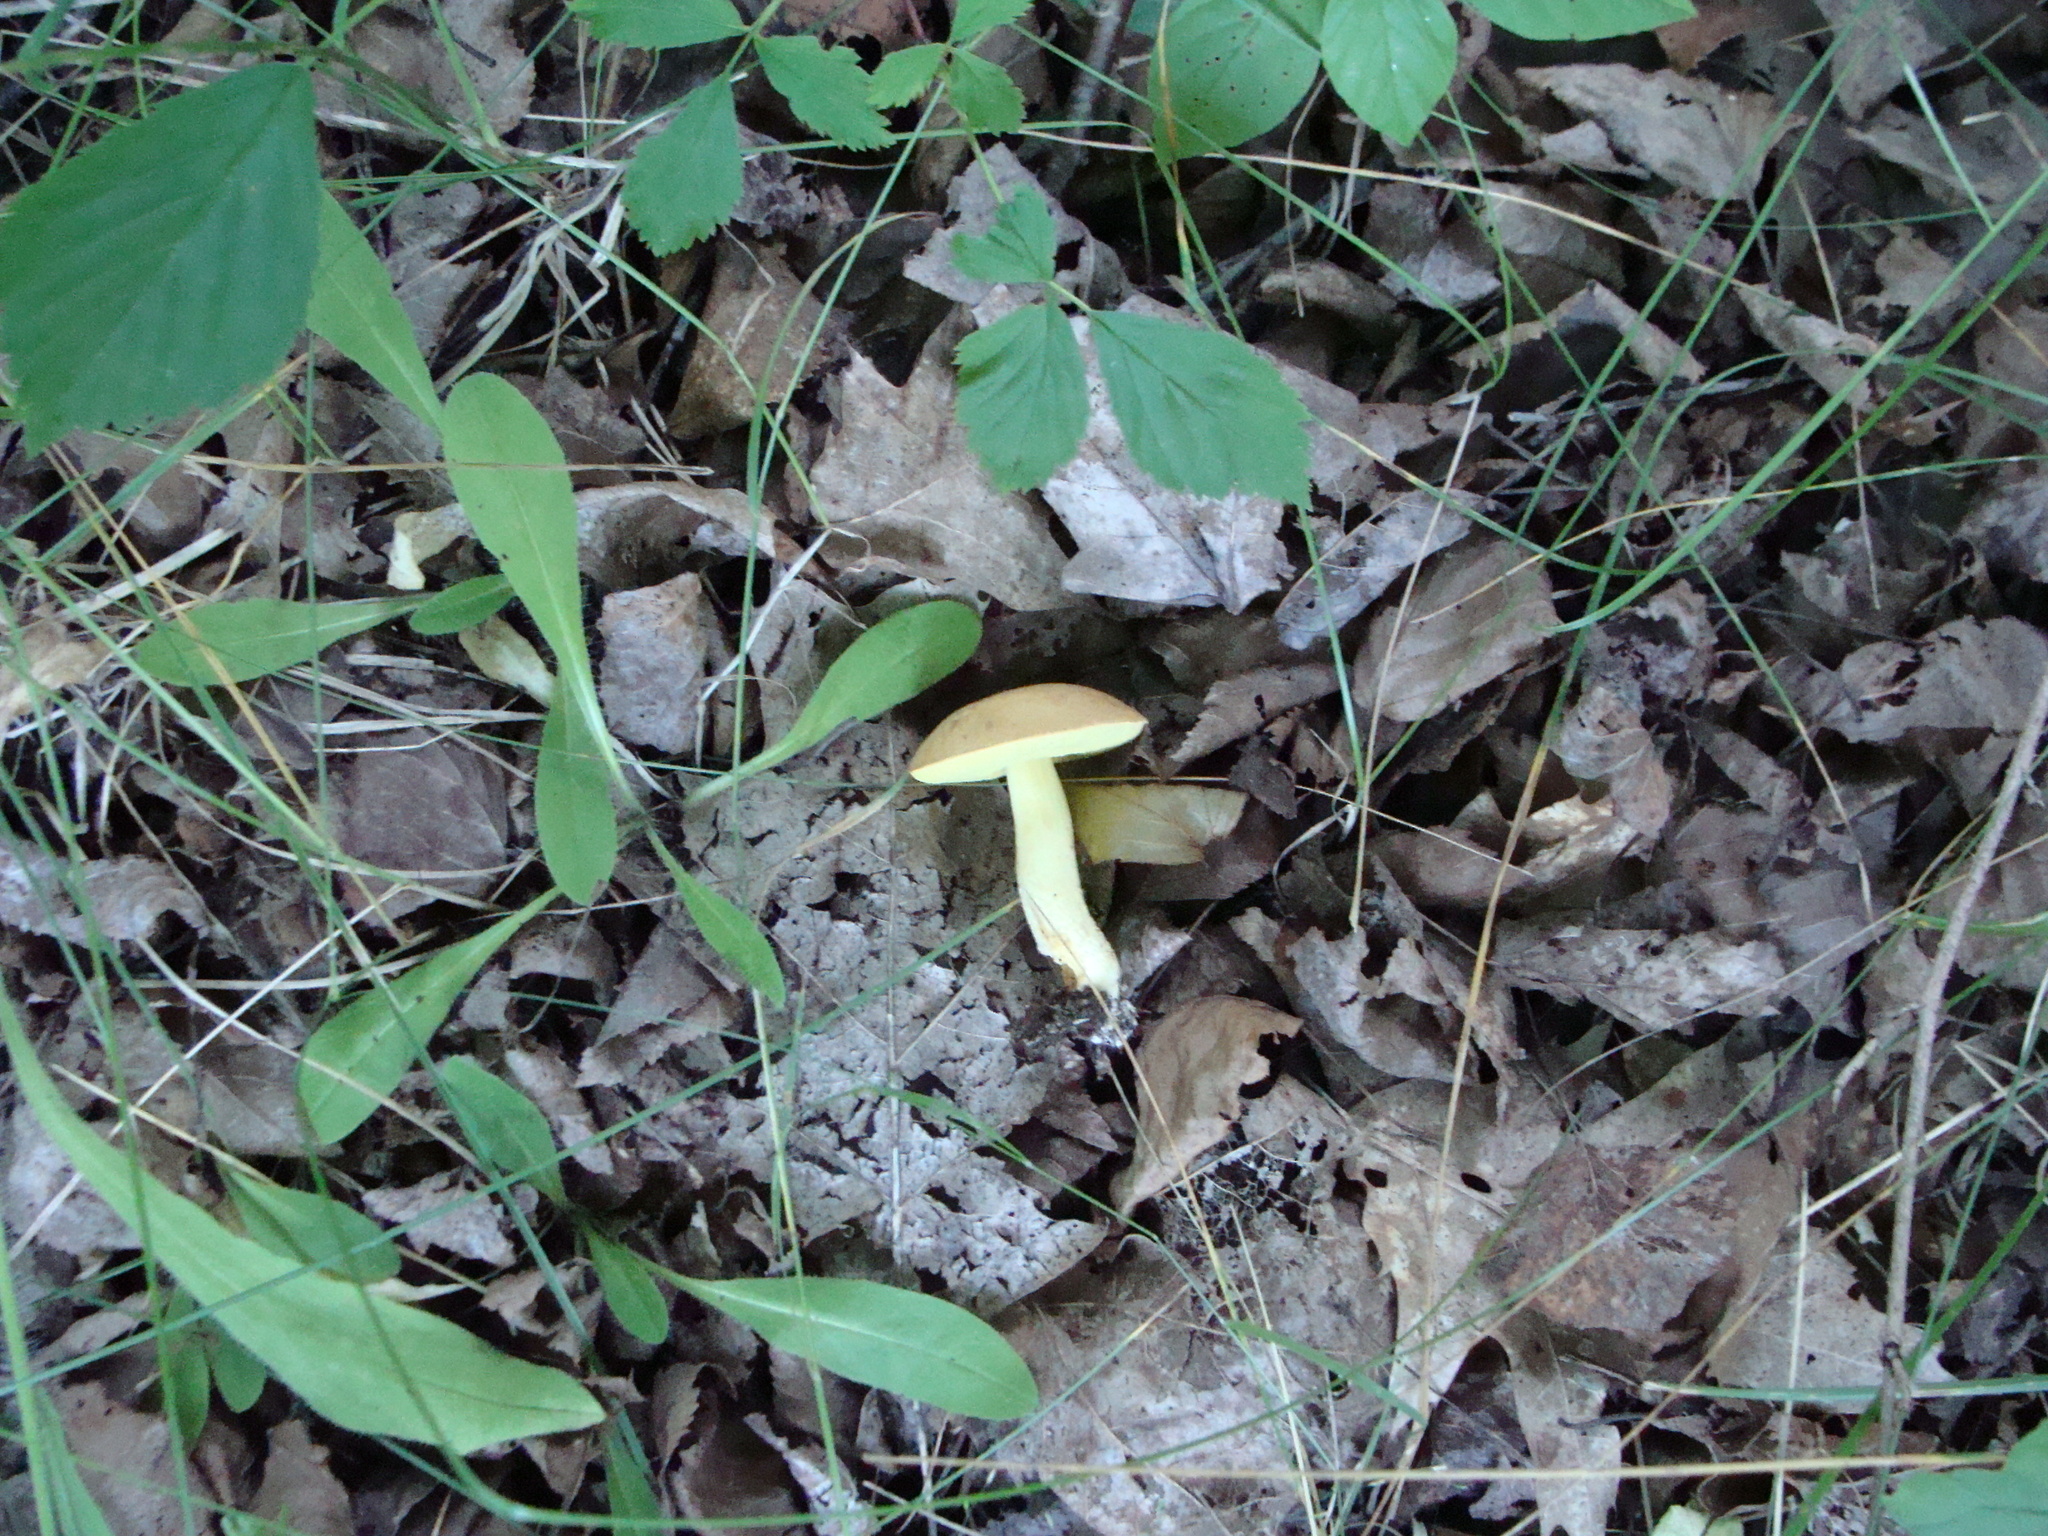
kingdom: Fungi
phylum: Basidiomycota
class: Agaricomycetes
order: Boletales
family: Boletaceae
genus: Hemileccinum
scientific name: Hemileccinum subglabripes
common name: Smoothish-stemmed bolete
